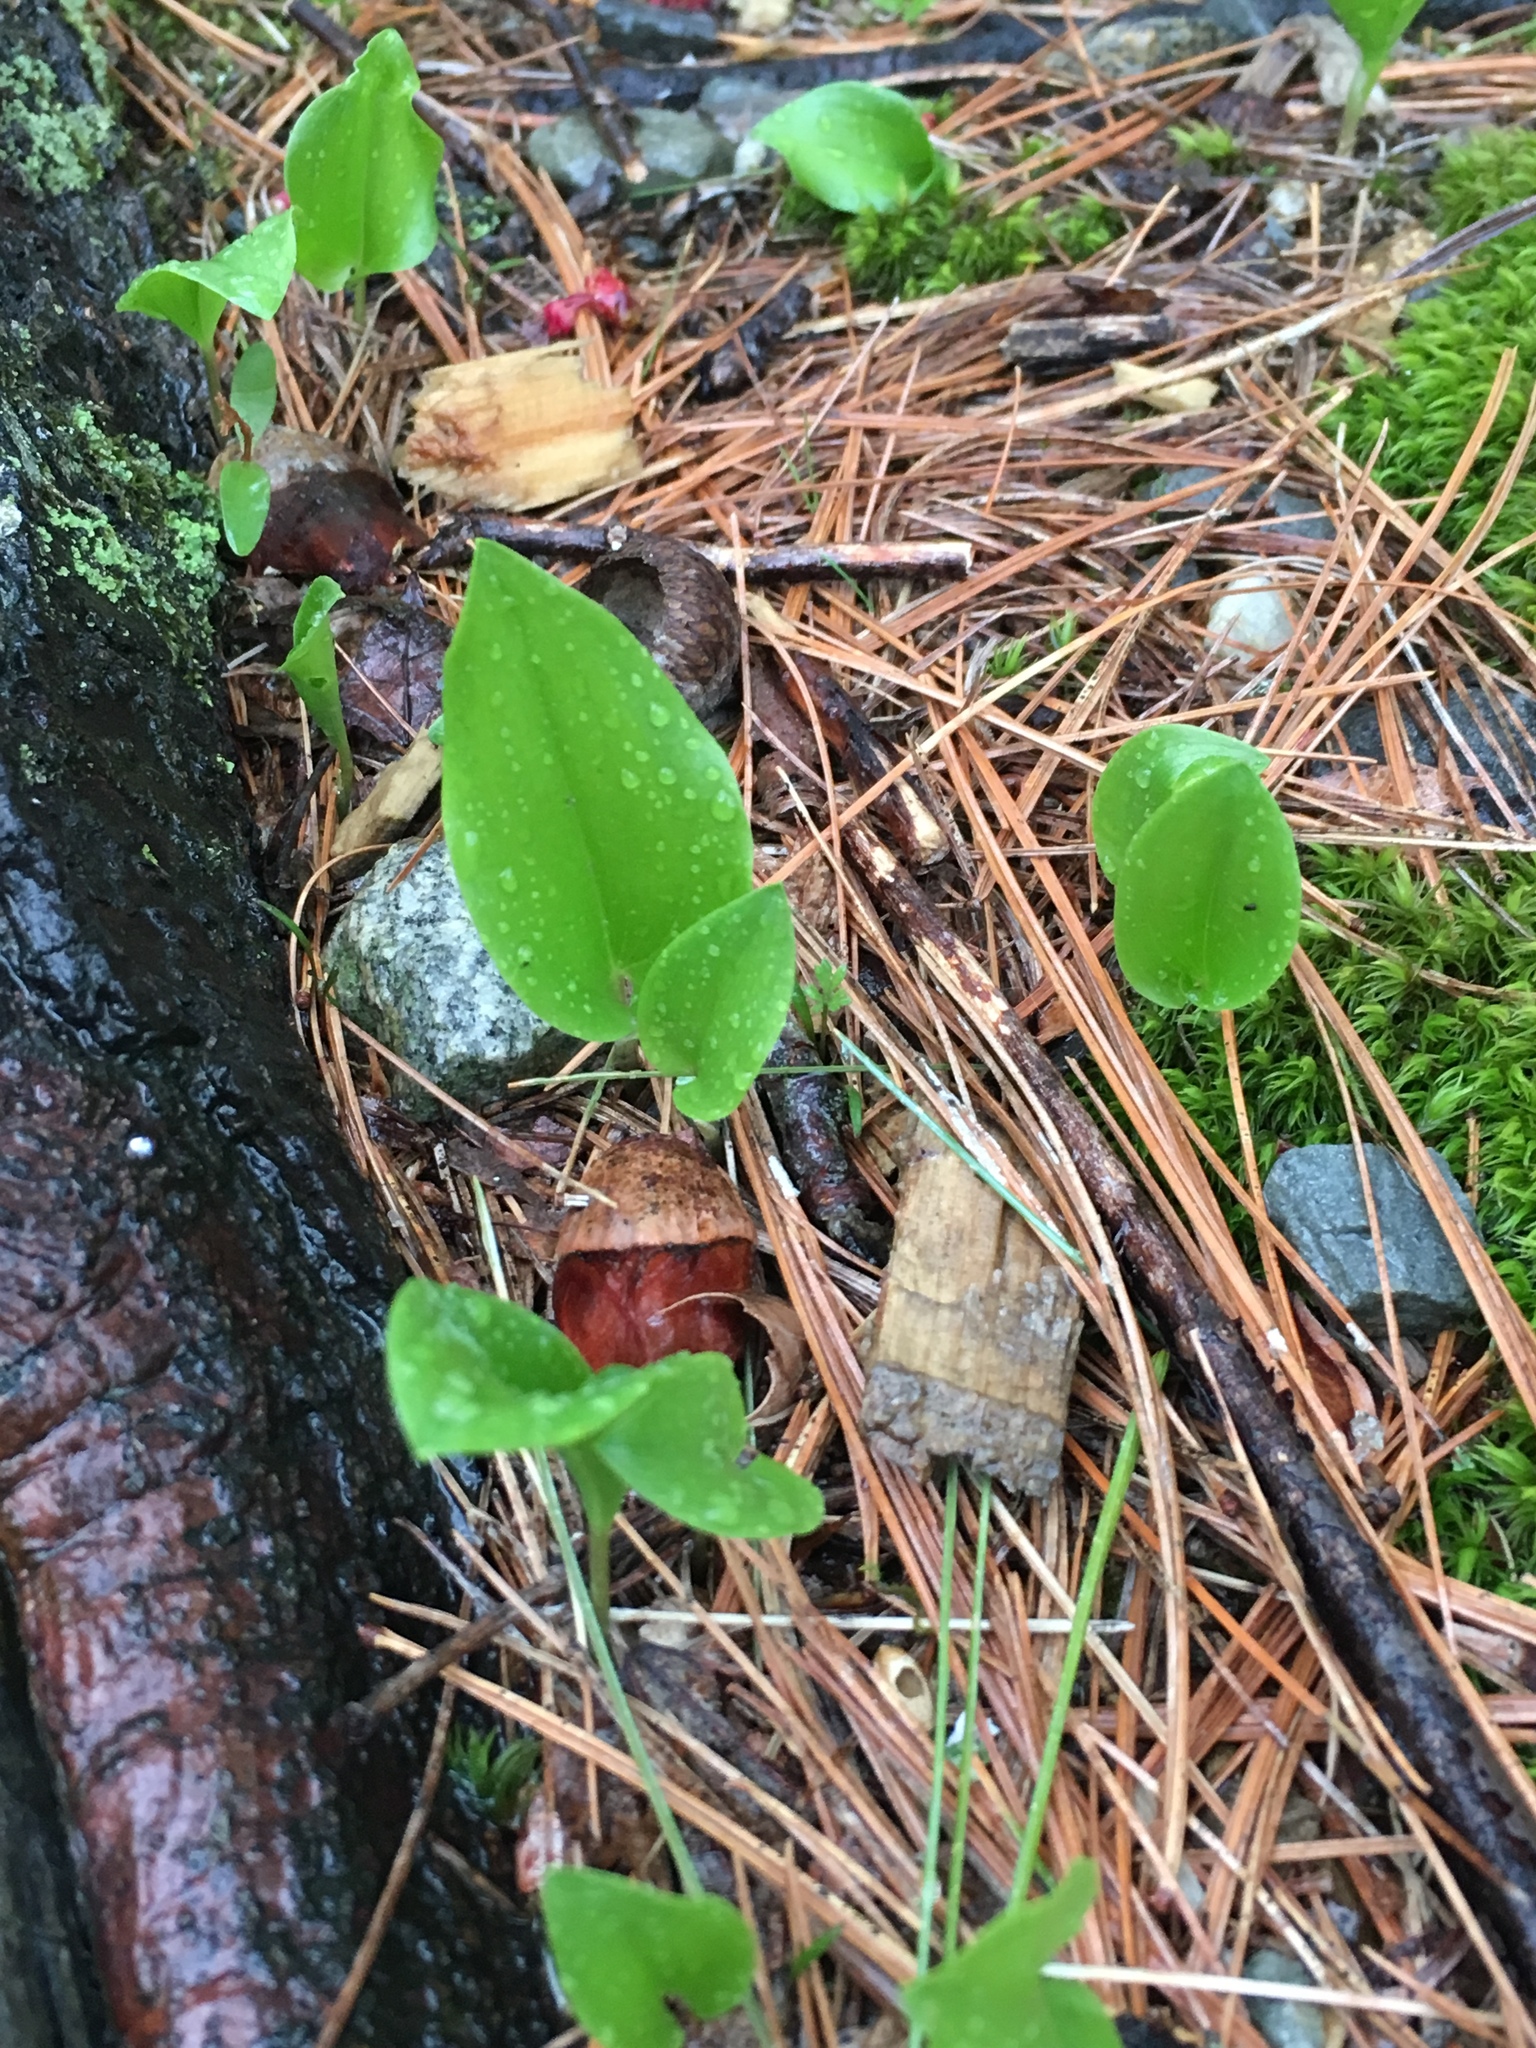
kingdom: Plantae
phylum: Tracheophyta
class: Liliopsida
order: Asparagales
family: Asparagaceae
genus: Maianthemum
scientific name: Maianthemum canadense
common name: False lily-of-the-valley
